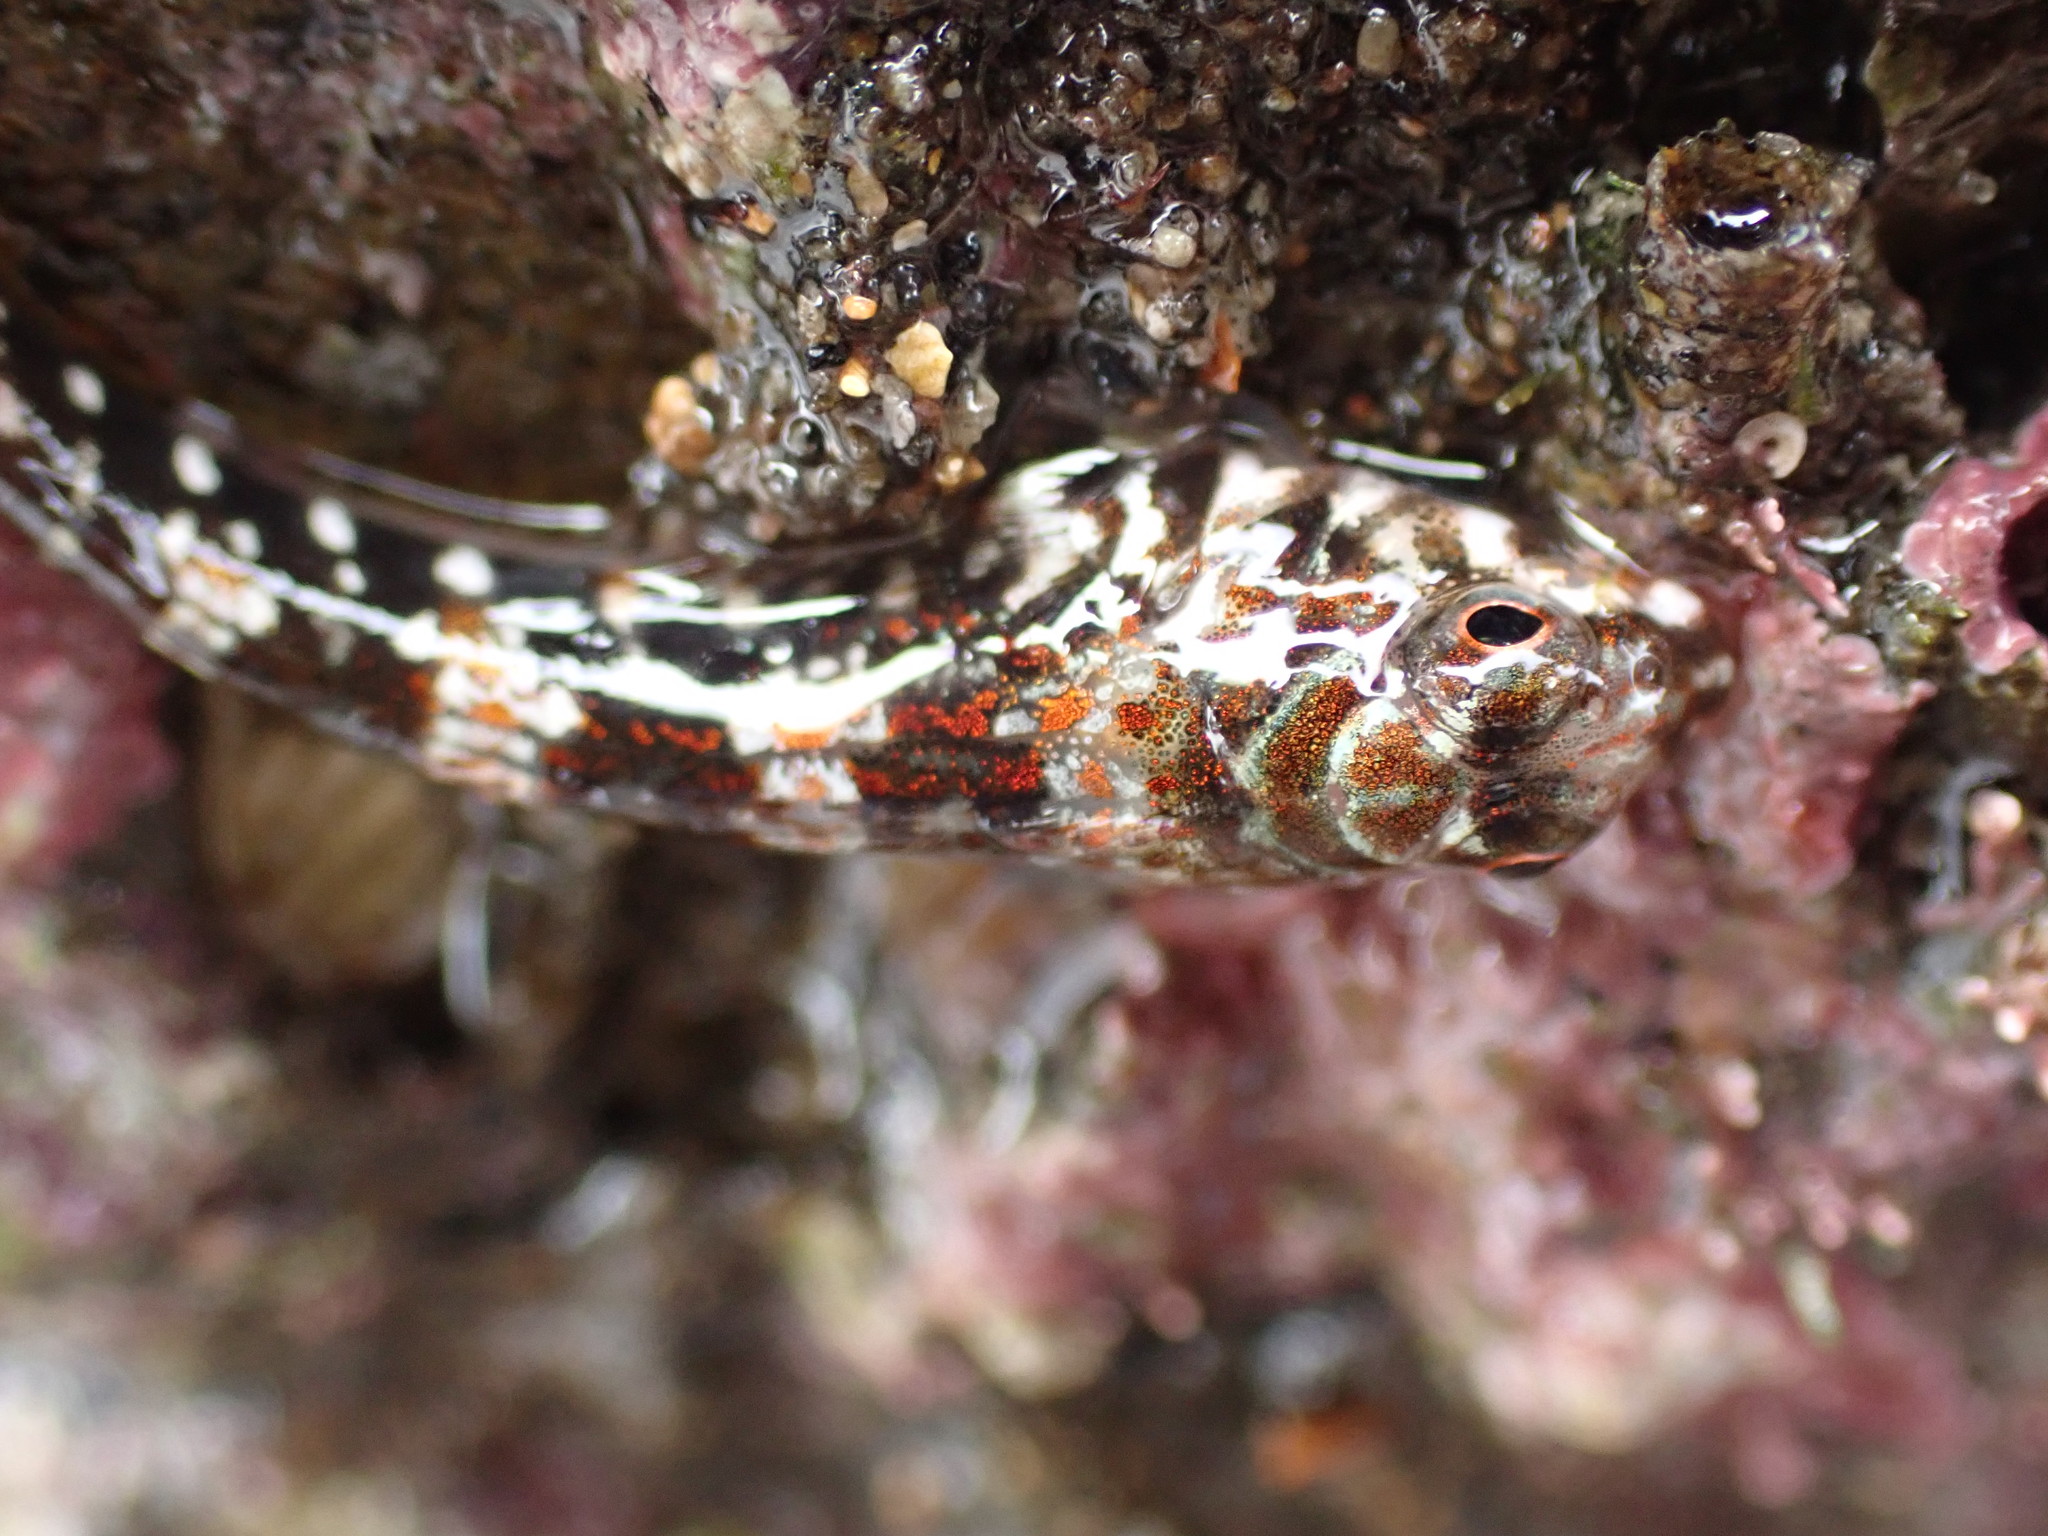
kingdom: Animalia
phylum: Chordata
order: Perciformes
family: Tripterygiidae
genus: Cryptichthys
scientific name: Cryptichthys jojettae
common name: Cryptic triplefin
